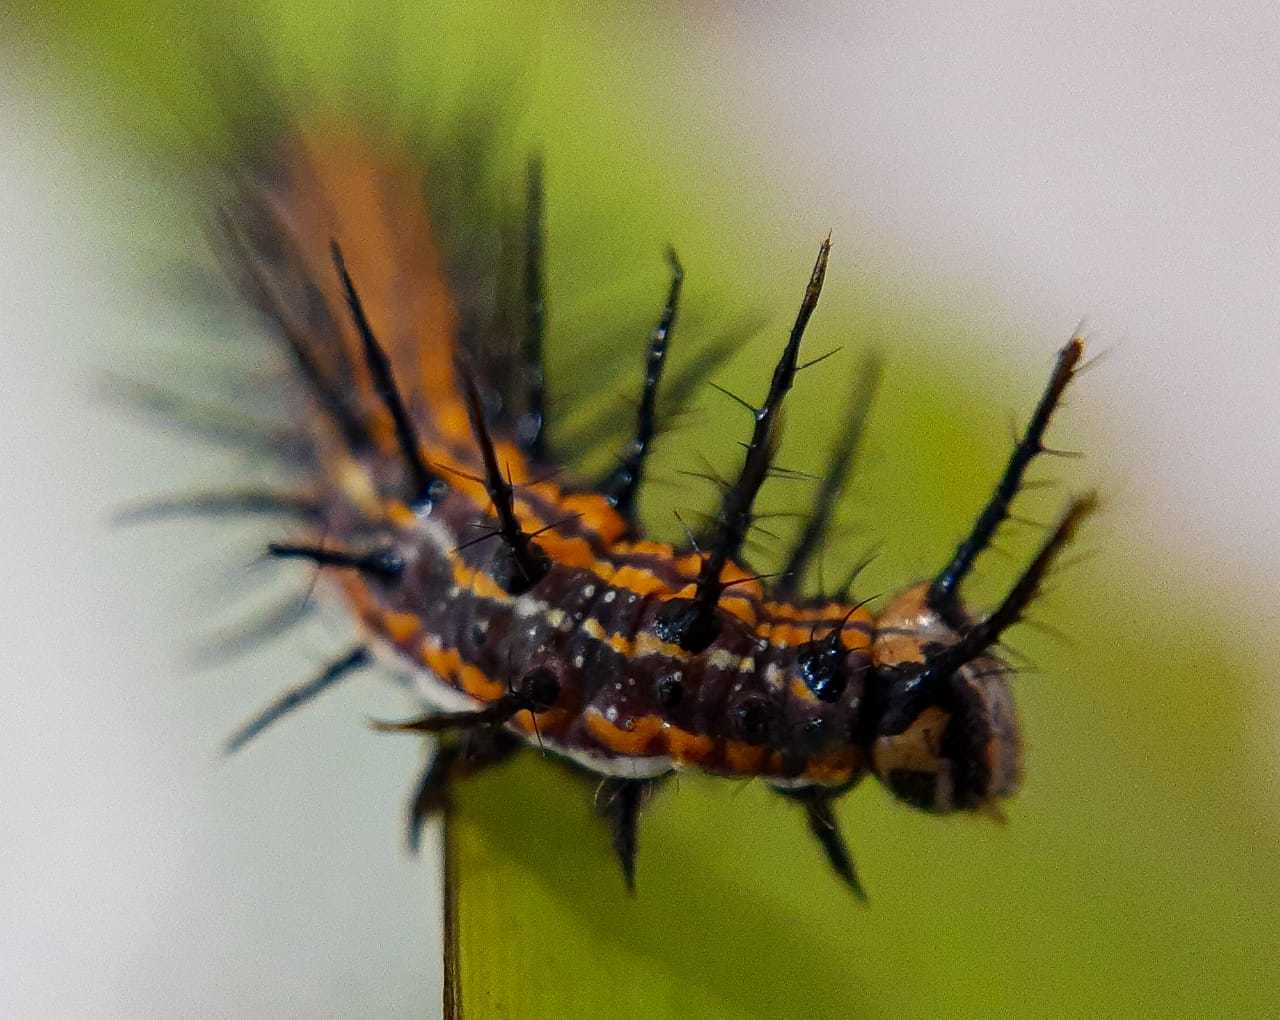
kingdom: Animalia
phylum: Arthropoda
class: Insecta
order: Lepidoptera
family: Nymphalidae
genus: Dione
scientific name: Dione vanillae
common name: Gulf fritillary
